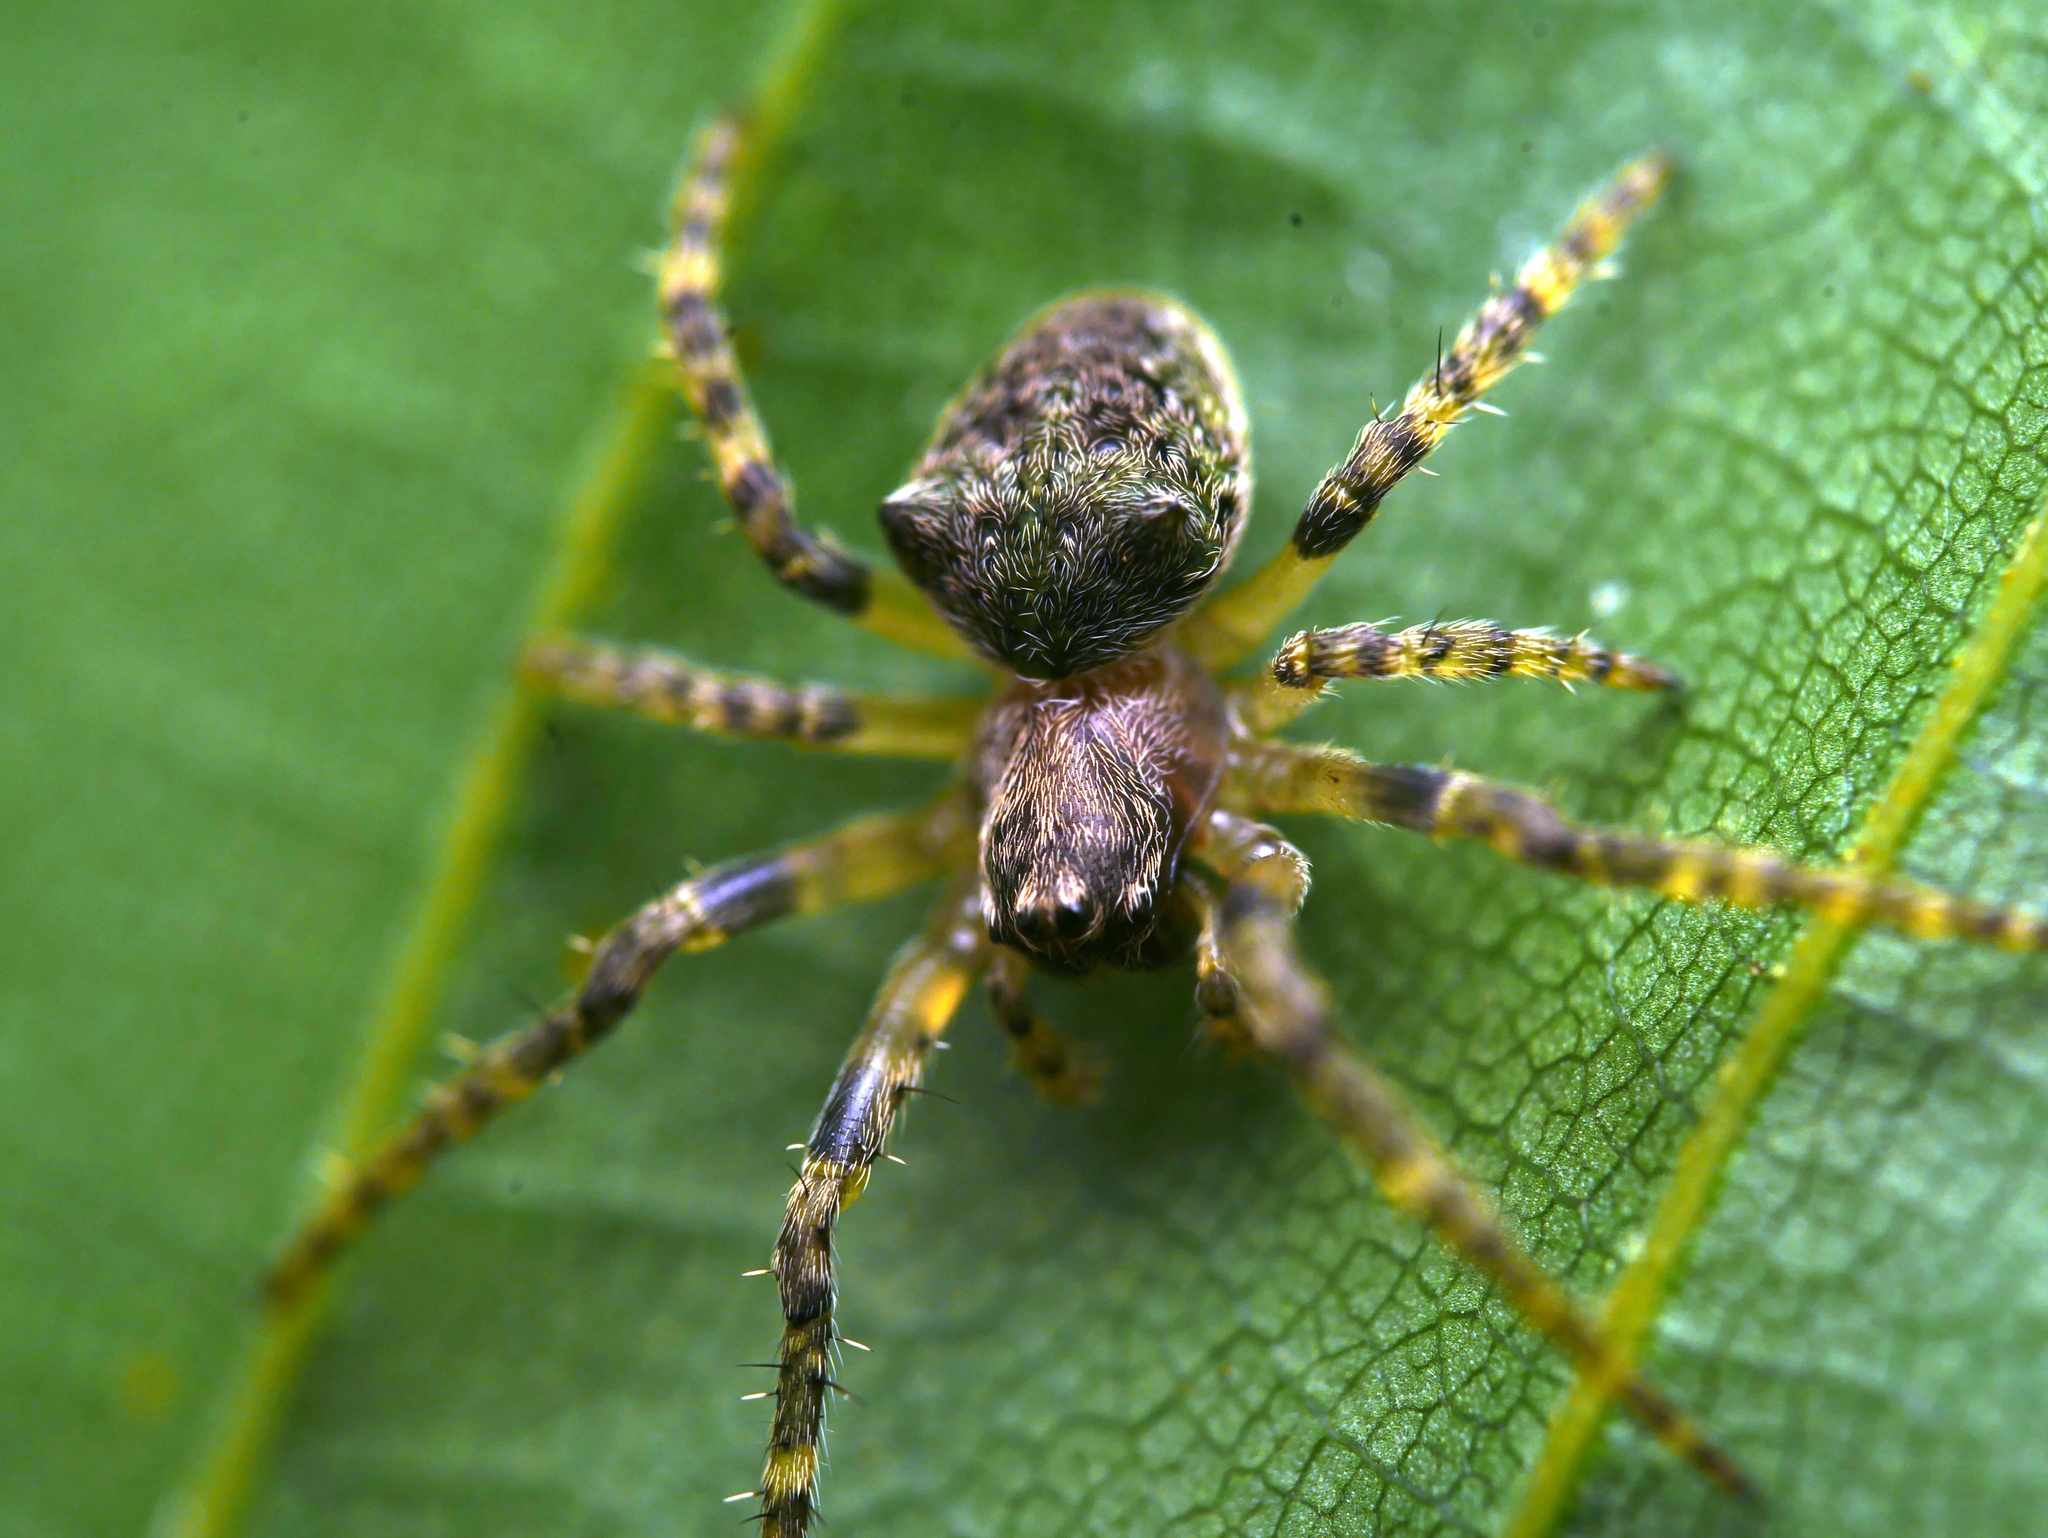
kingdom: Animalia
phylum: Arthropoda
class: Arachnida
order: Araneae
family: Araneidae
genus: Gibbaranea
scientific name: Gibbaranea gibbosa
